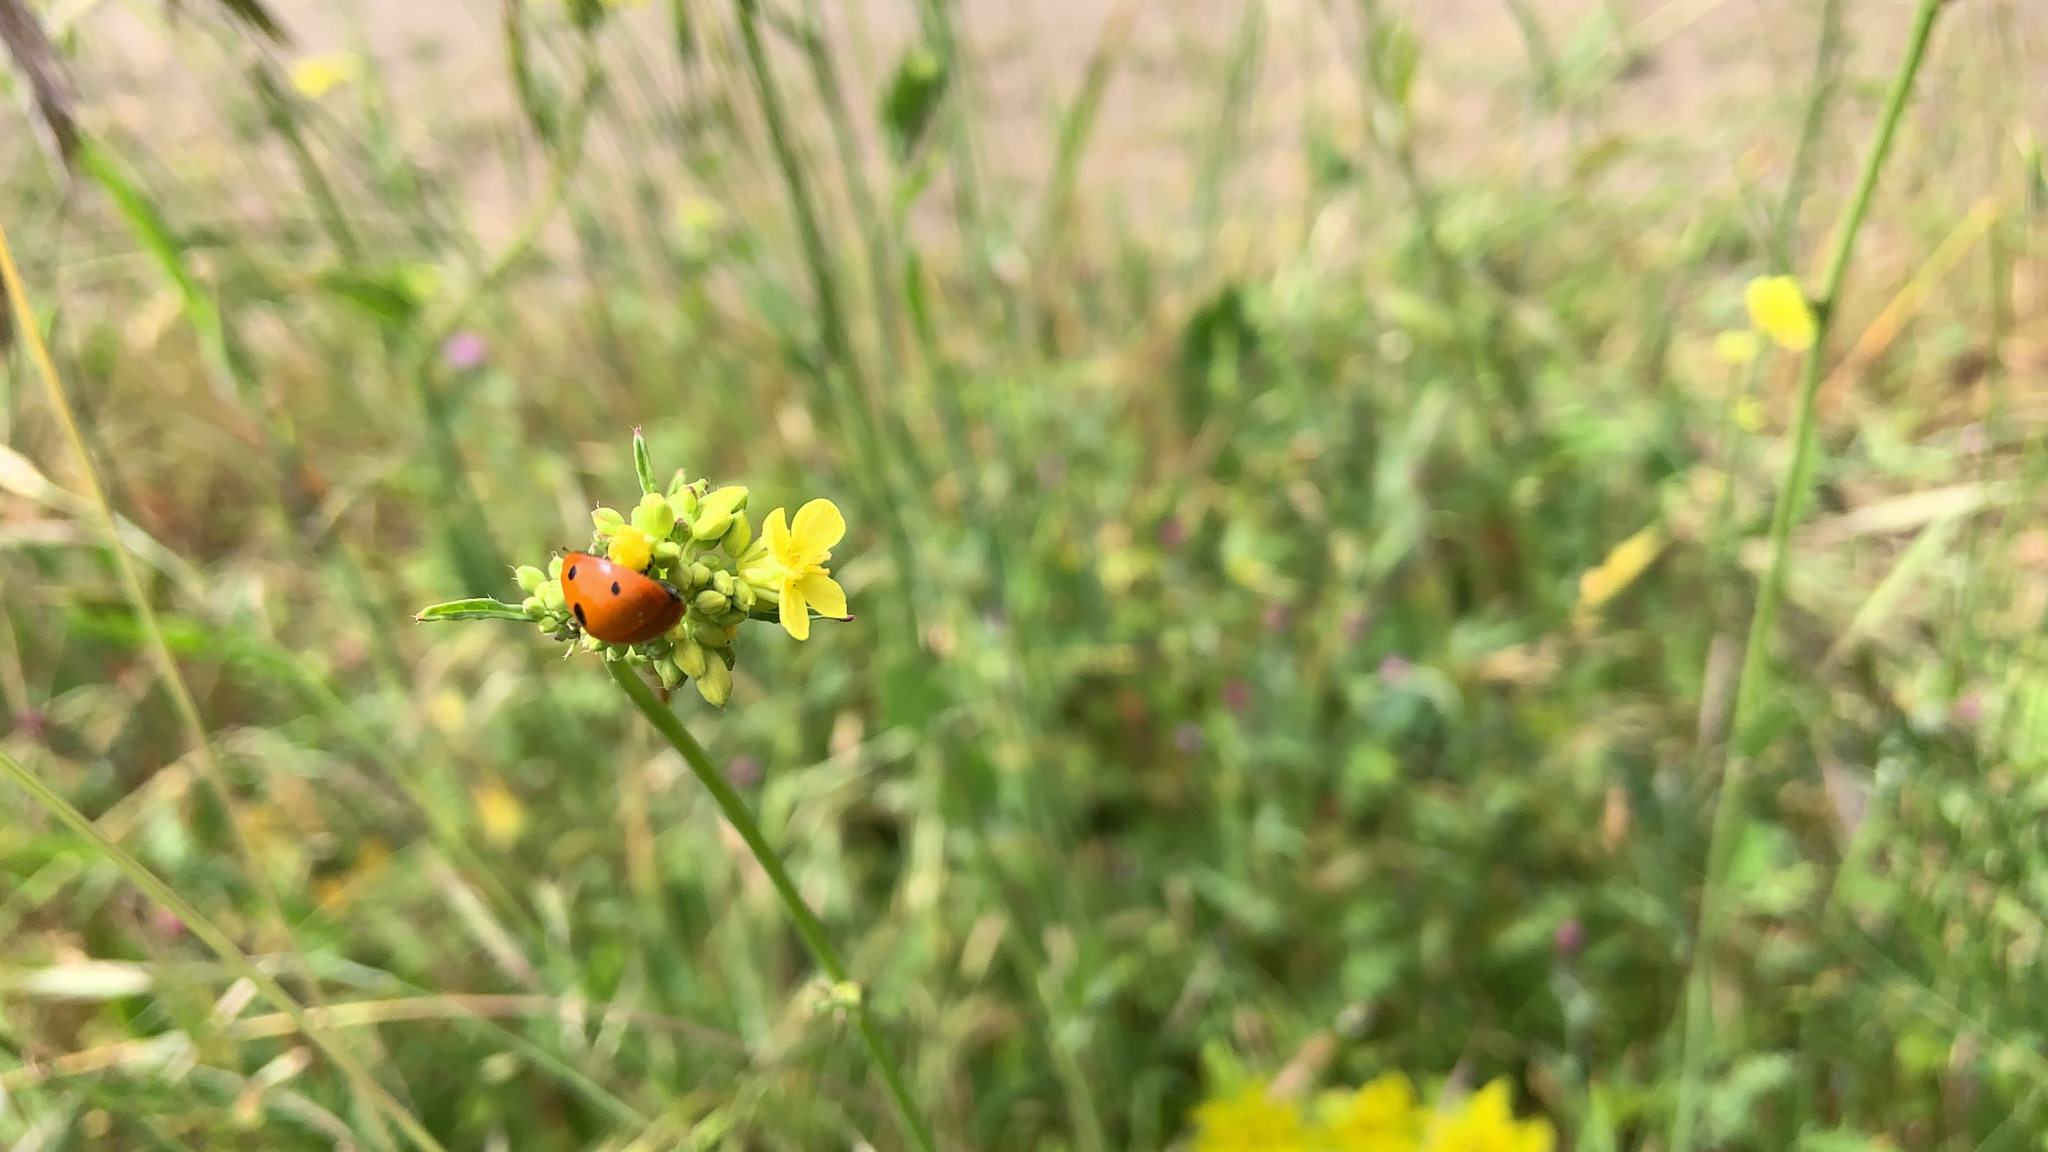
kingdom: Animalia
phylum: Arthropoda
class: Insecta
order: Coleoptera
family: Coccinellidae
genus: Coccinella
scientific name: Coccinella septempunctata
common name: Sevenspotted lady beetle
